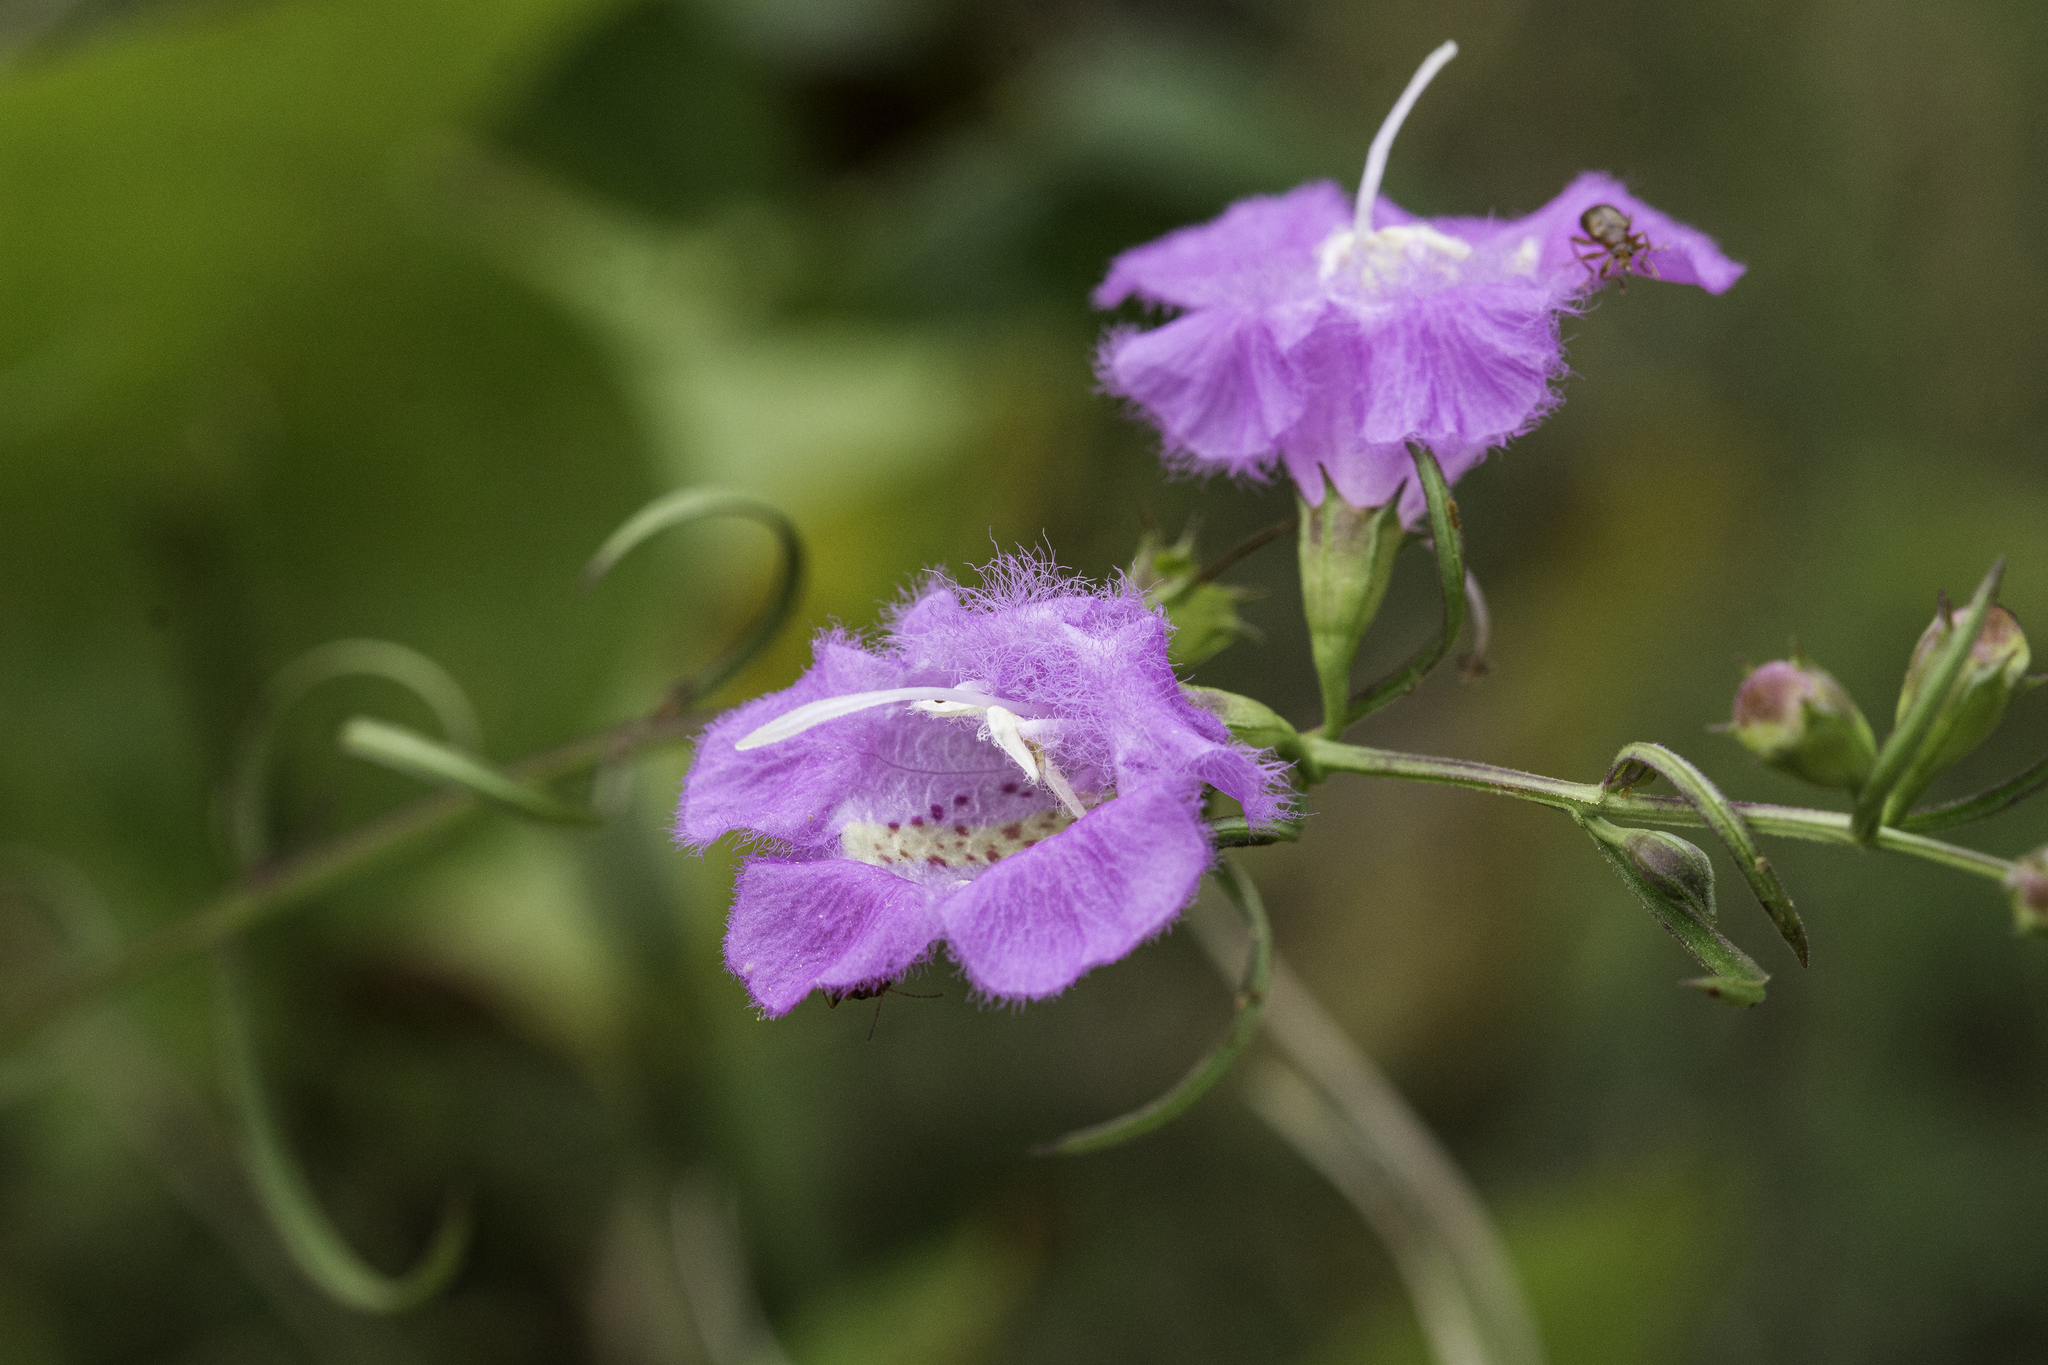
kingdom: Plantae
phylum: Tracheophyta
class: Magnoliopsida
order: Lamiales
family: Orobanchaceae
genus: Agalinis
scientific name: Agalinis purpurea
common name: Purple false foxglove
